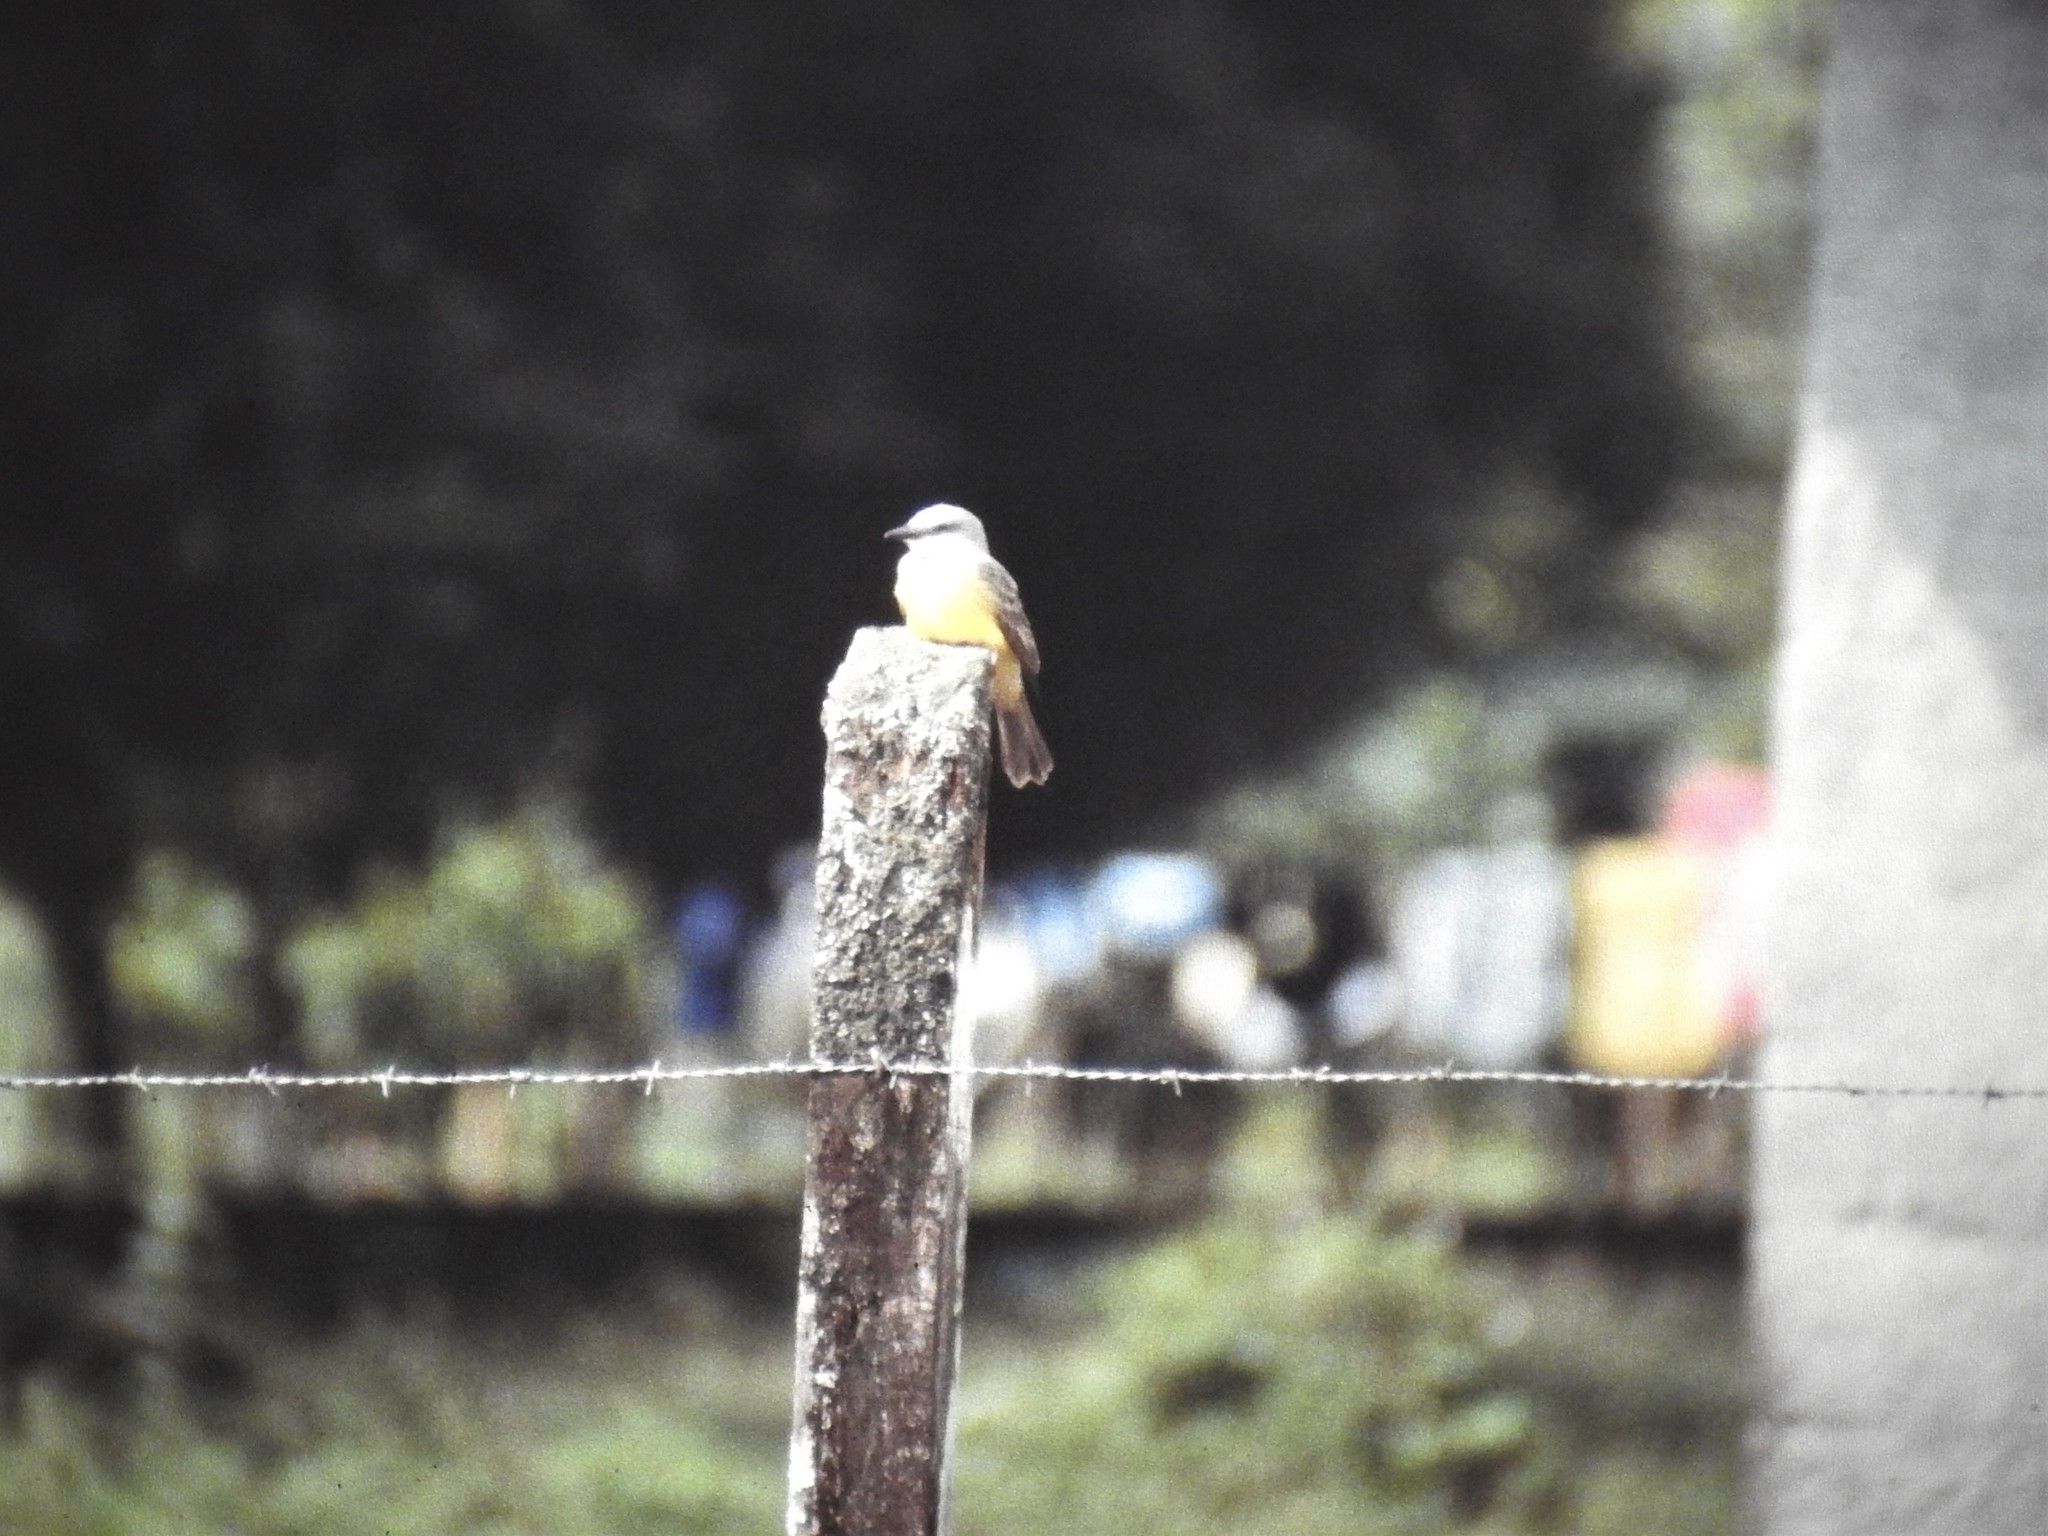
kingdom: Animalia
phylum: Chordata
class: Aves
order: Passeriformes
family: Tyrannidae
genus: Tyrannus
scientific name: Tyrannus melancholicus
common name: Tropical kingbird
